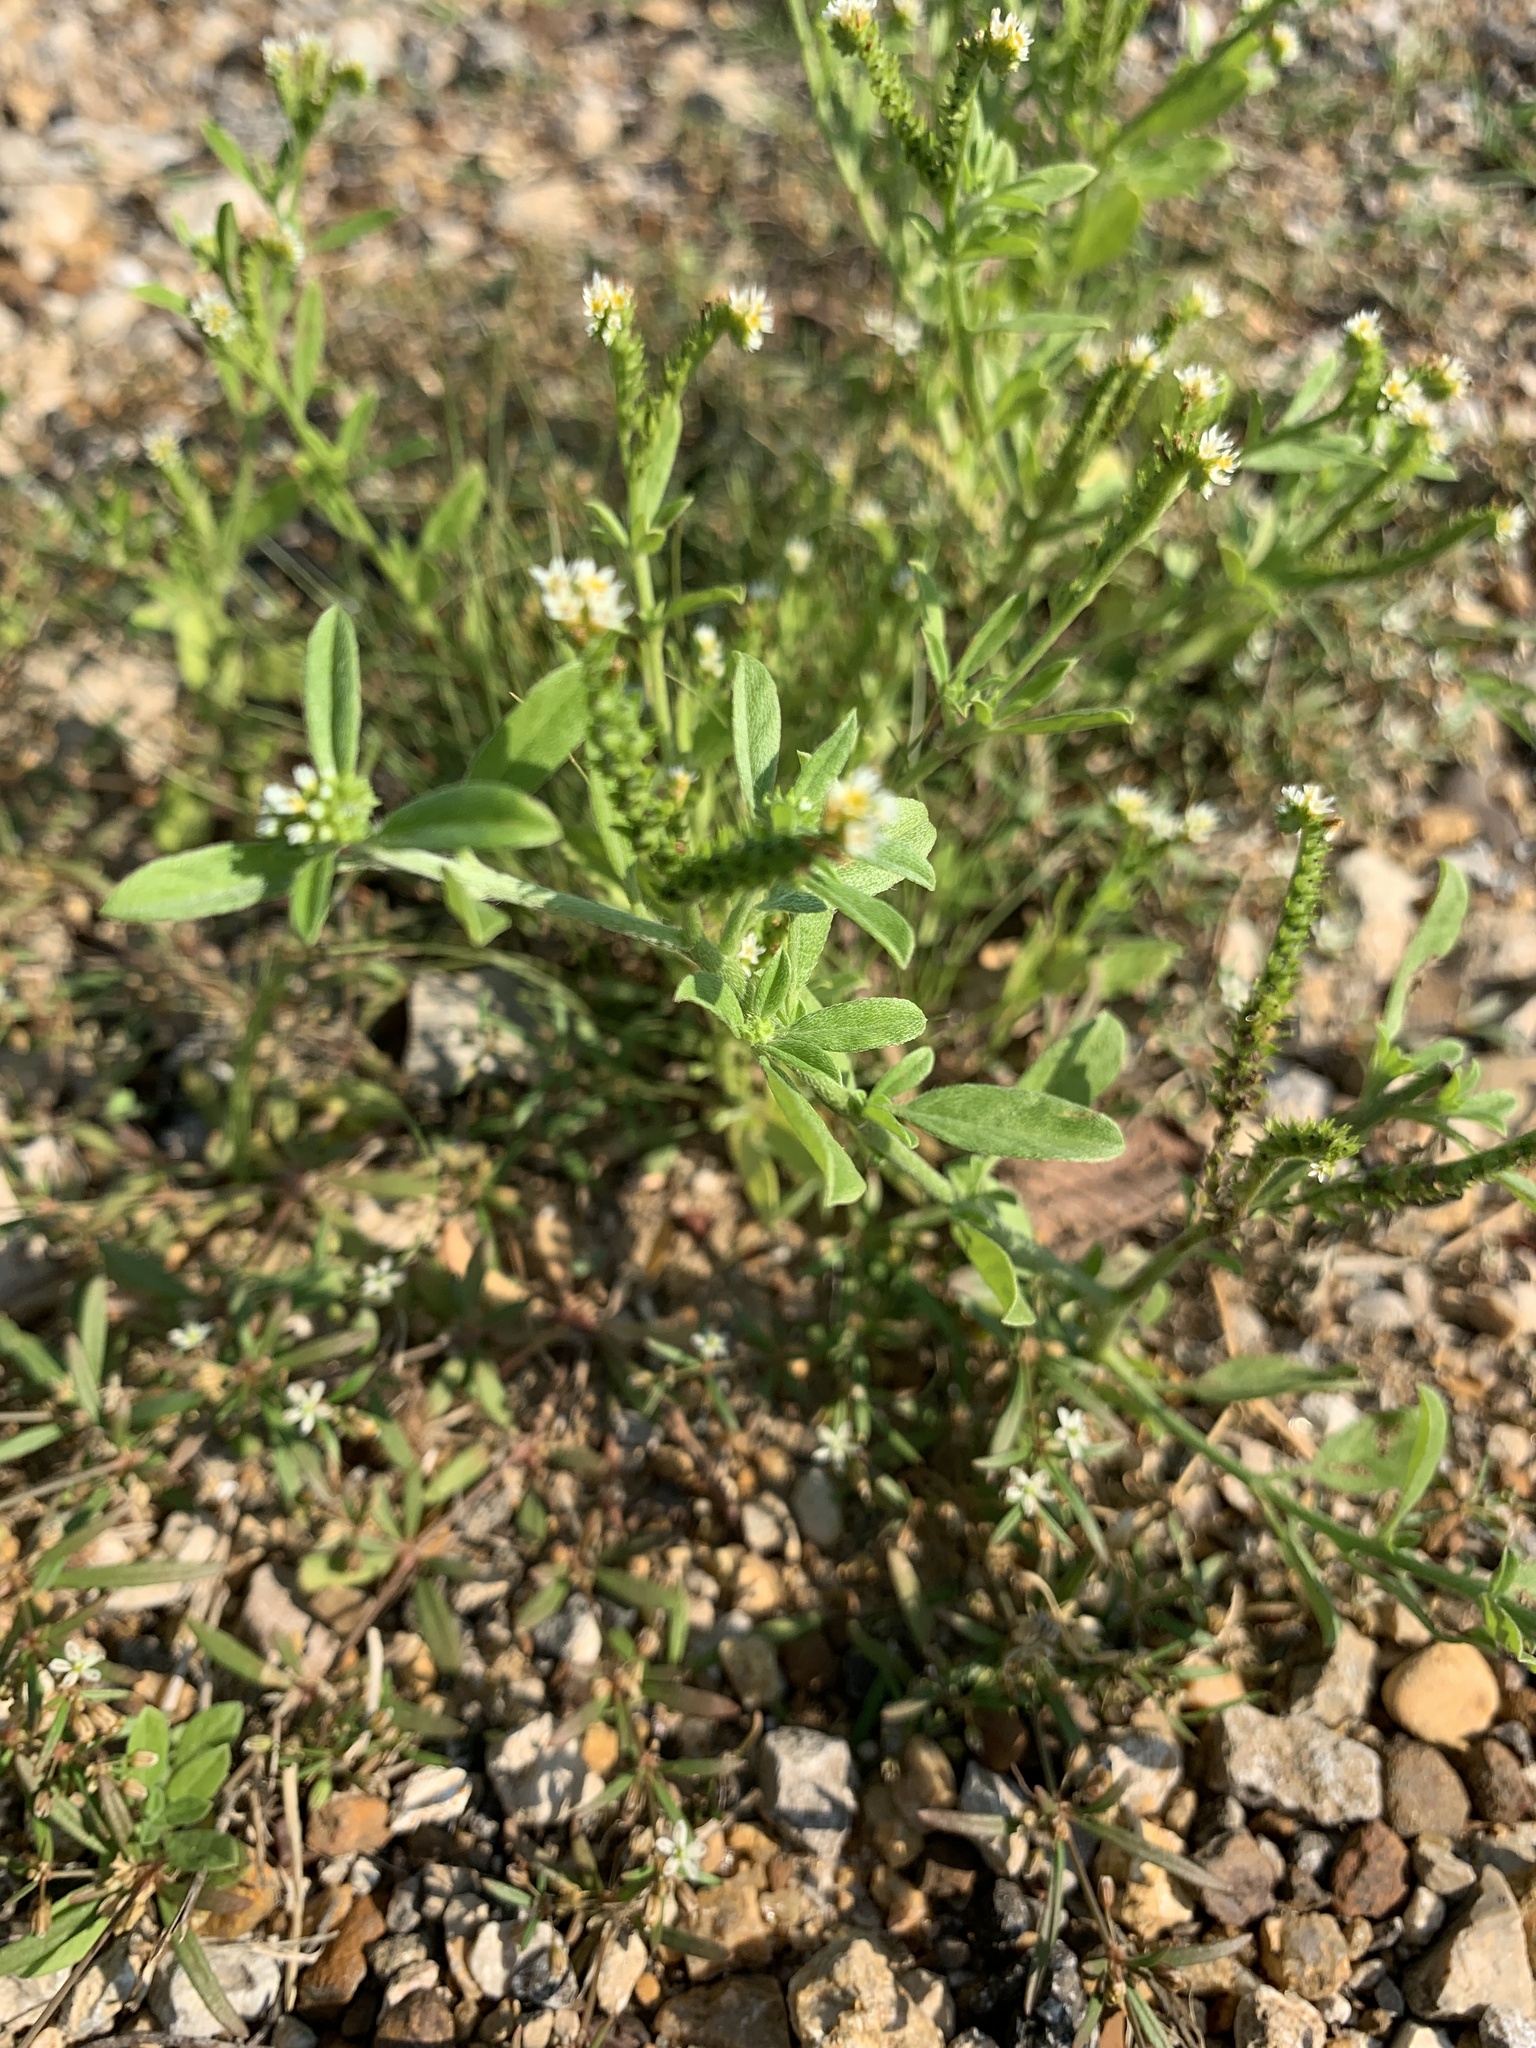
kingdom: Plantae
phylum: Tracheophyta
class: Magnoliopsida
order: Boraginales
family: Heliotropiaceae
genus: Euploca
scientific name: Euploca procumbens
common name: Fourspike heliotrope
